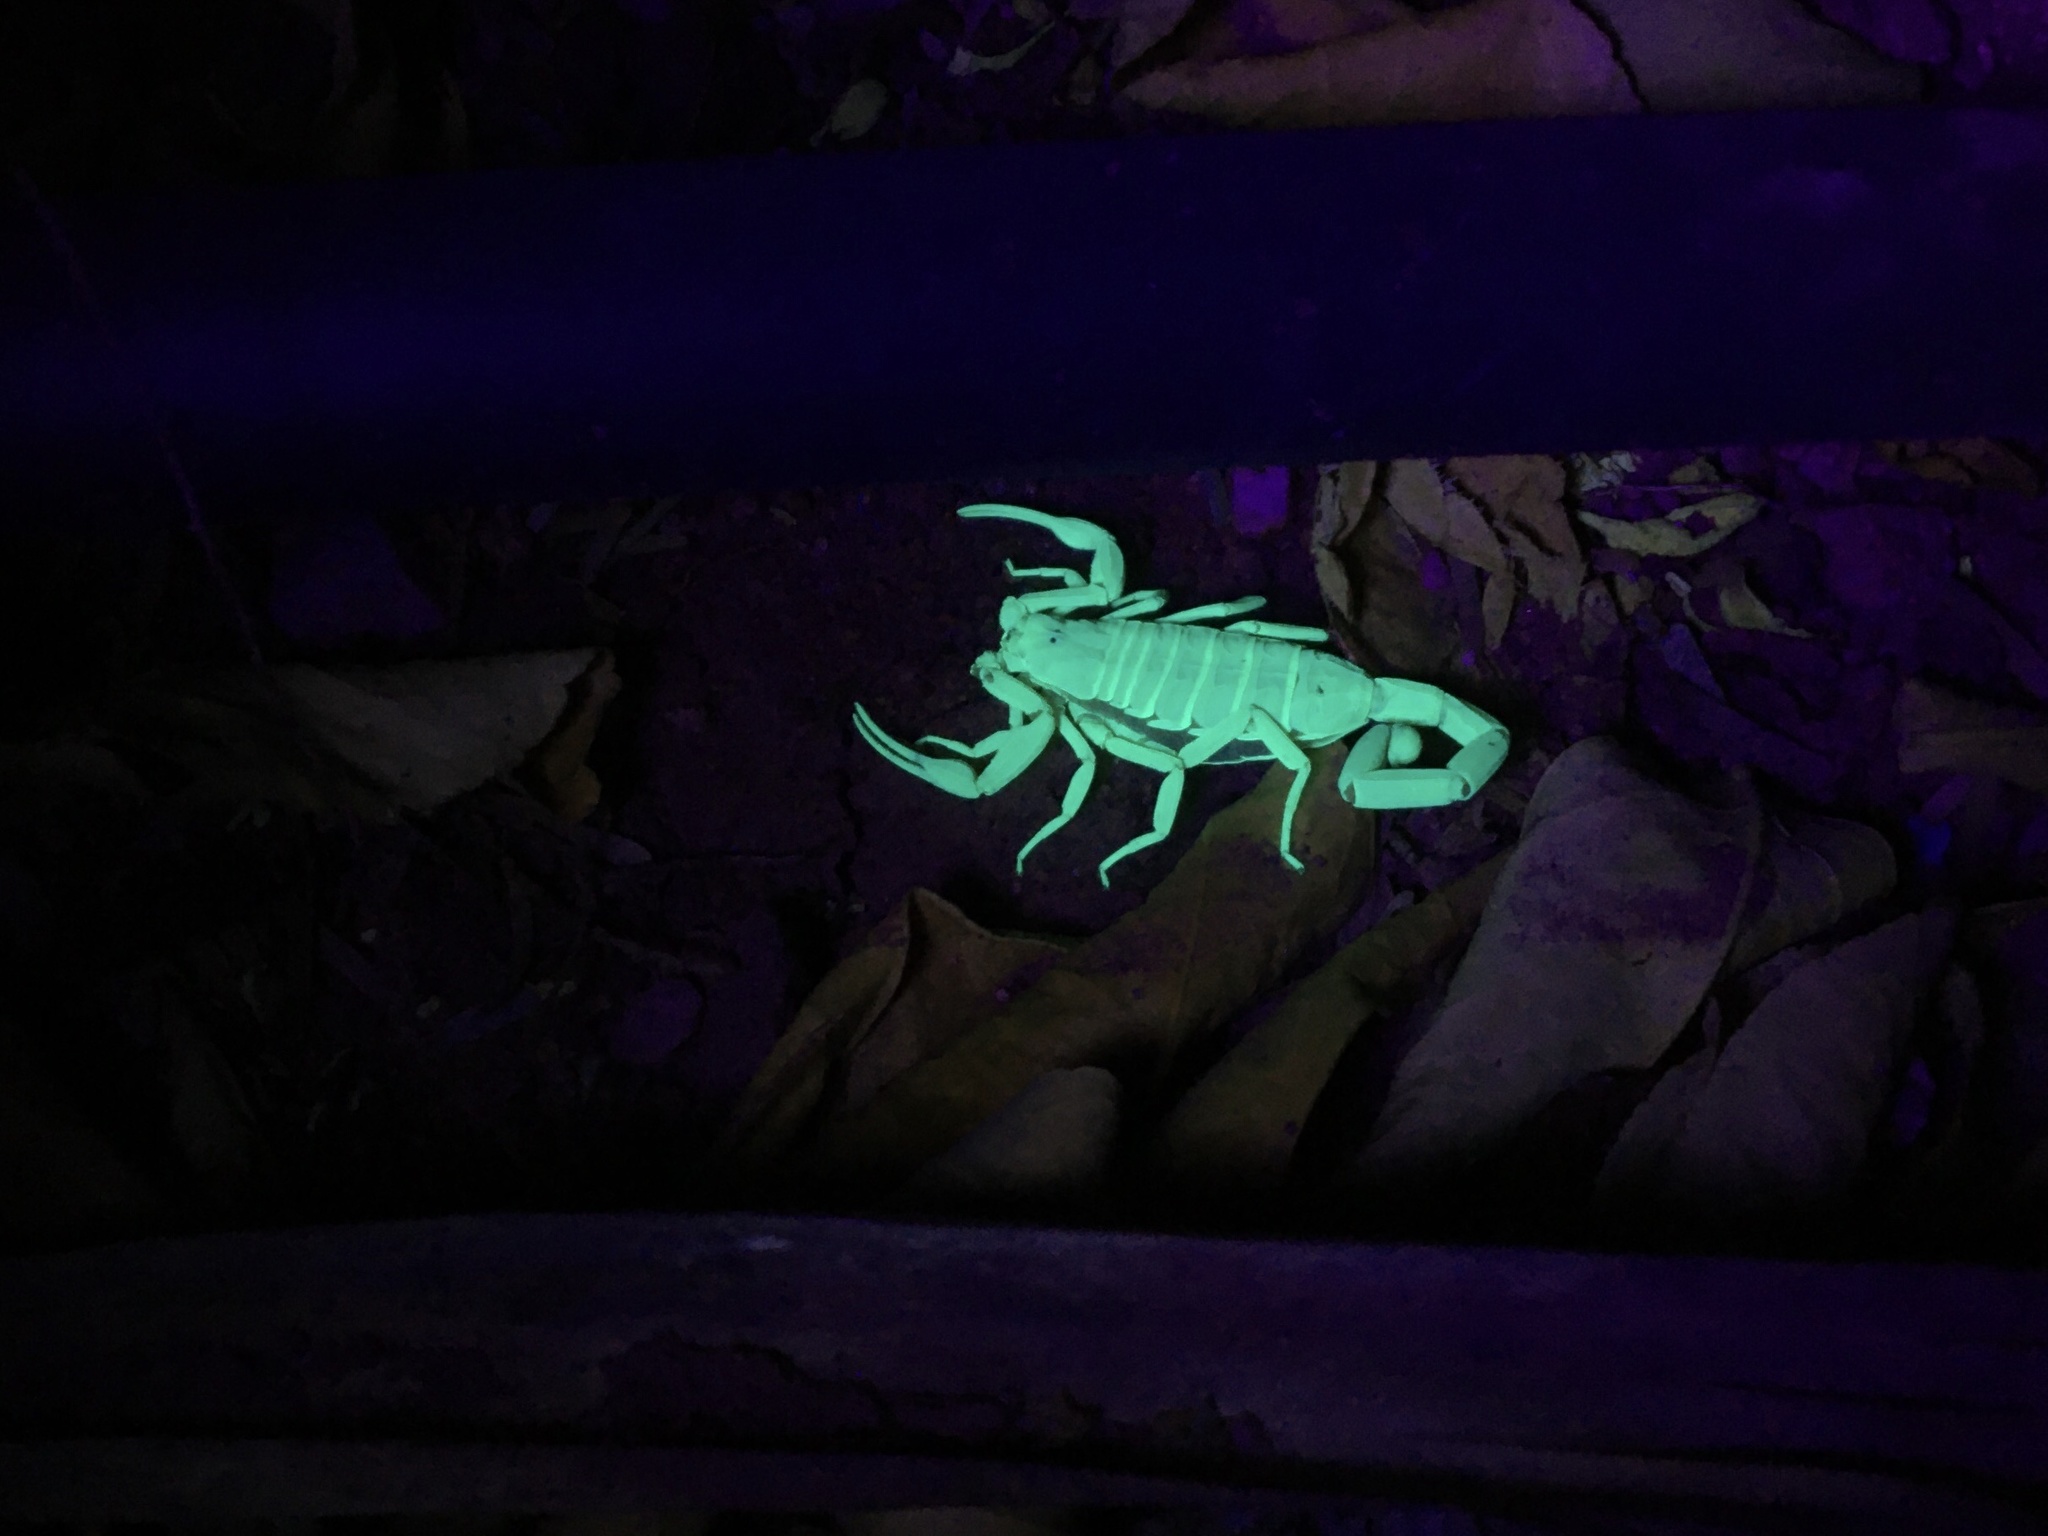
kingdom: Animalia
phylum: Arthropoda
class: Arachnida
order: Scorpiones
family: Buthidae
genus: Centruroides
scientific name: Centruroides sculpturatus
